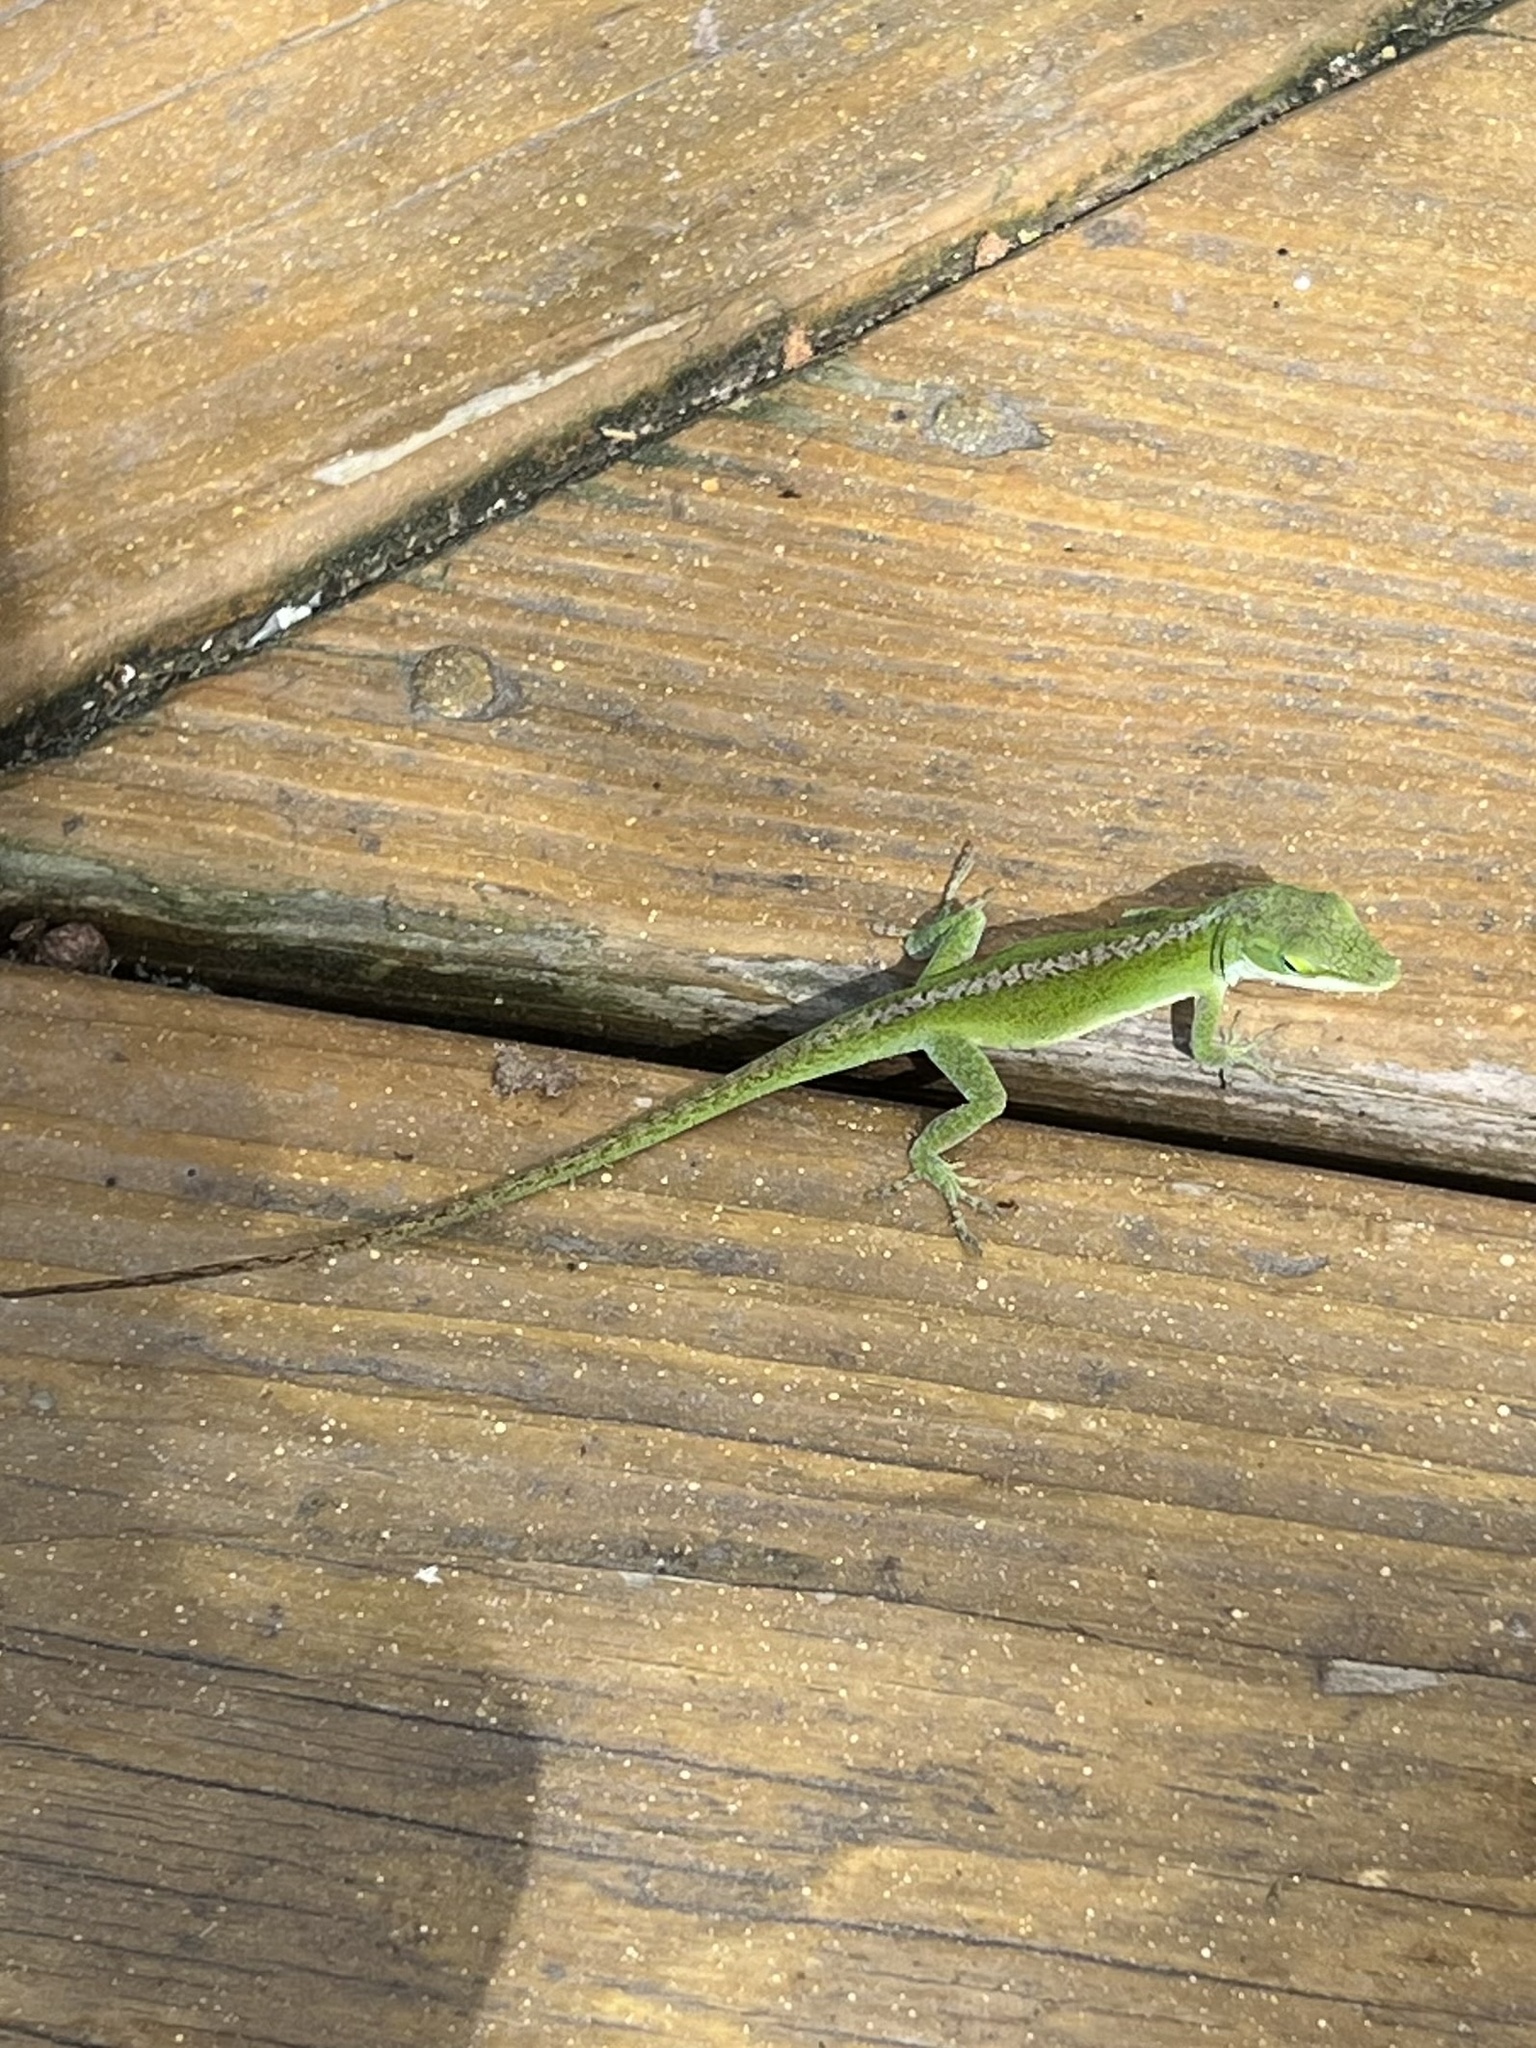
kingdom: Animalia
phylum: Chordata
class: Squamata
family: Dactyloidae
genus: Anolis
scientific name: Anolis carolinensis
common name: Green anole
